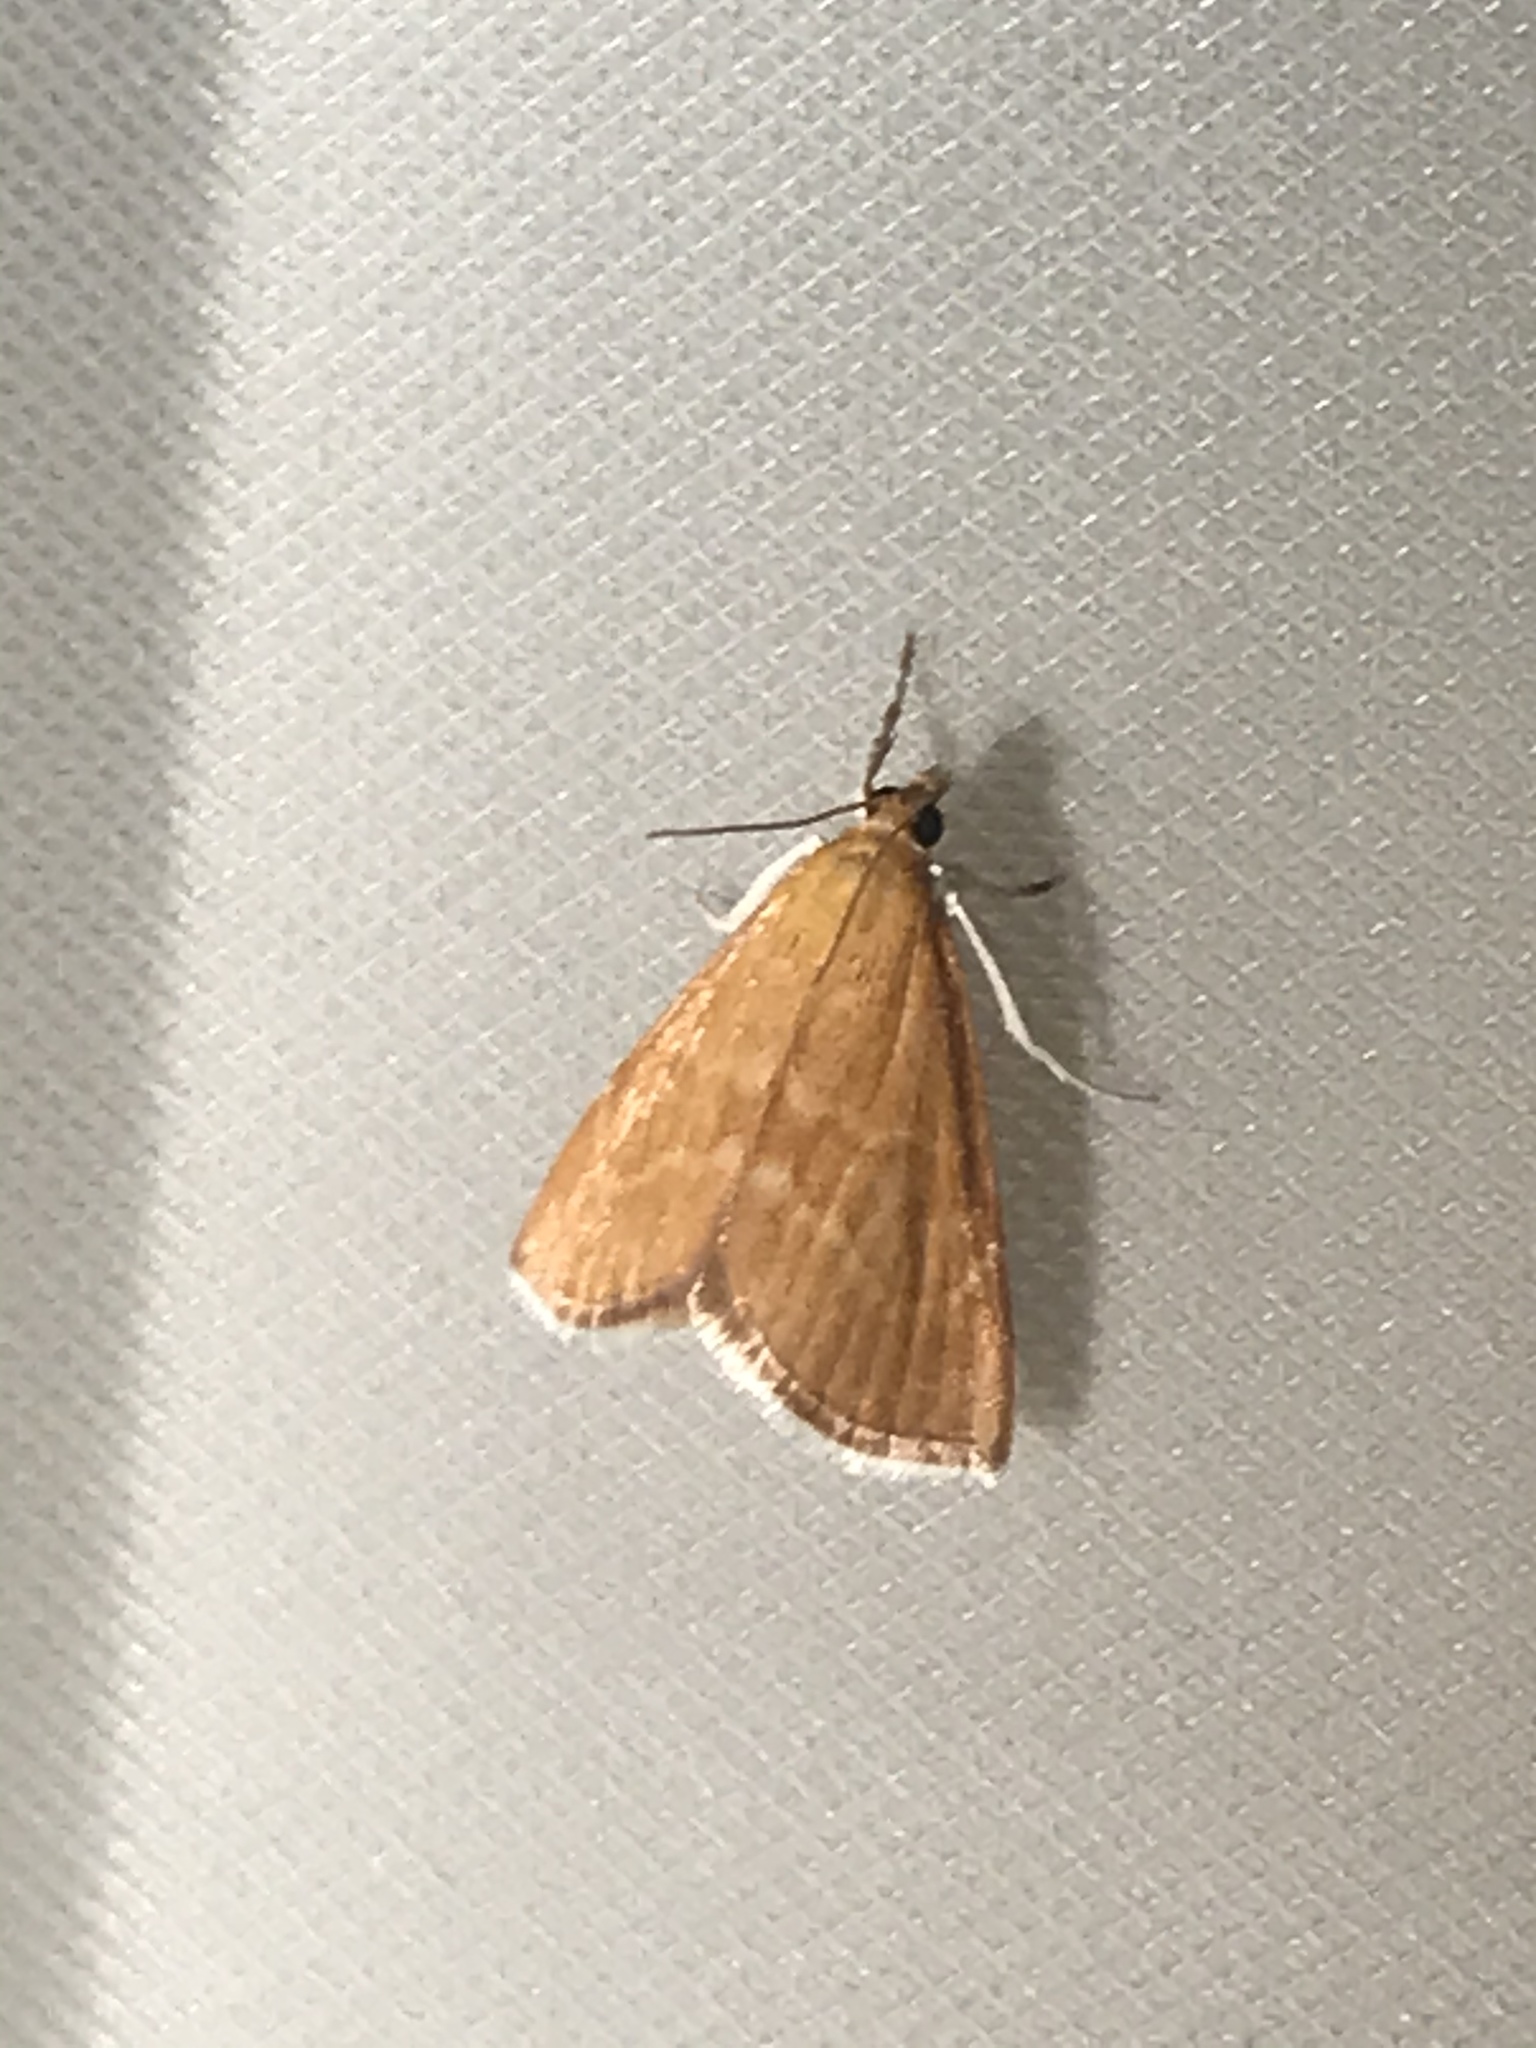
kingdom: Animalia
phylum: Arthropoda
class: Insecta
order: Lepidoptera
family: Crambidae
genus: Glaphyria
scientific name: Glaphyria invisalis
